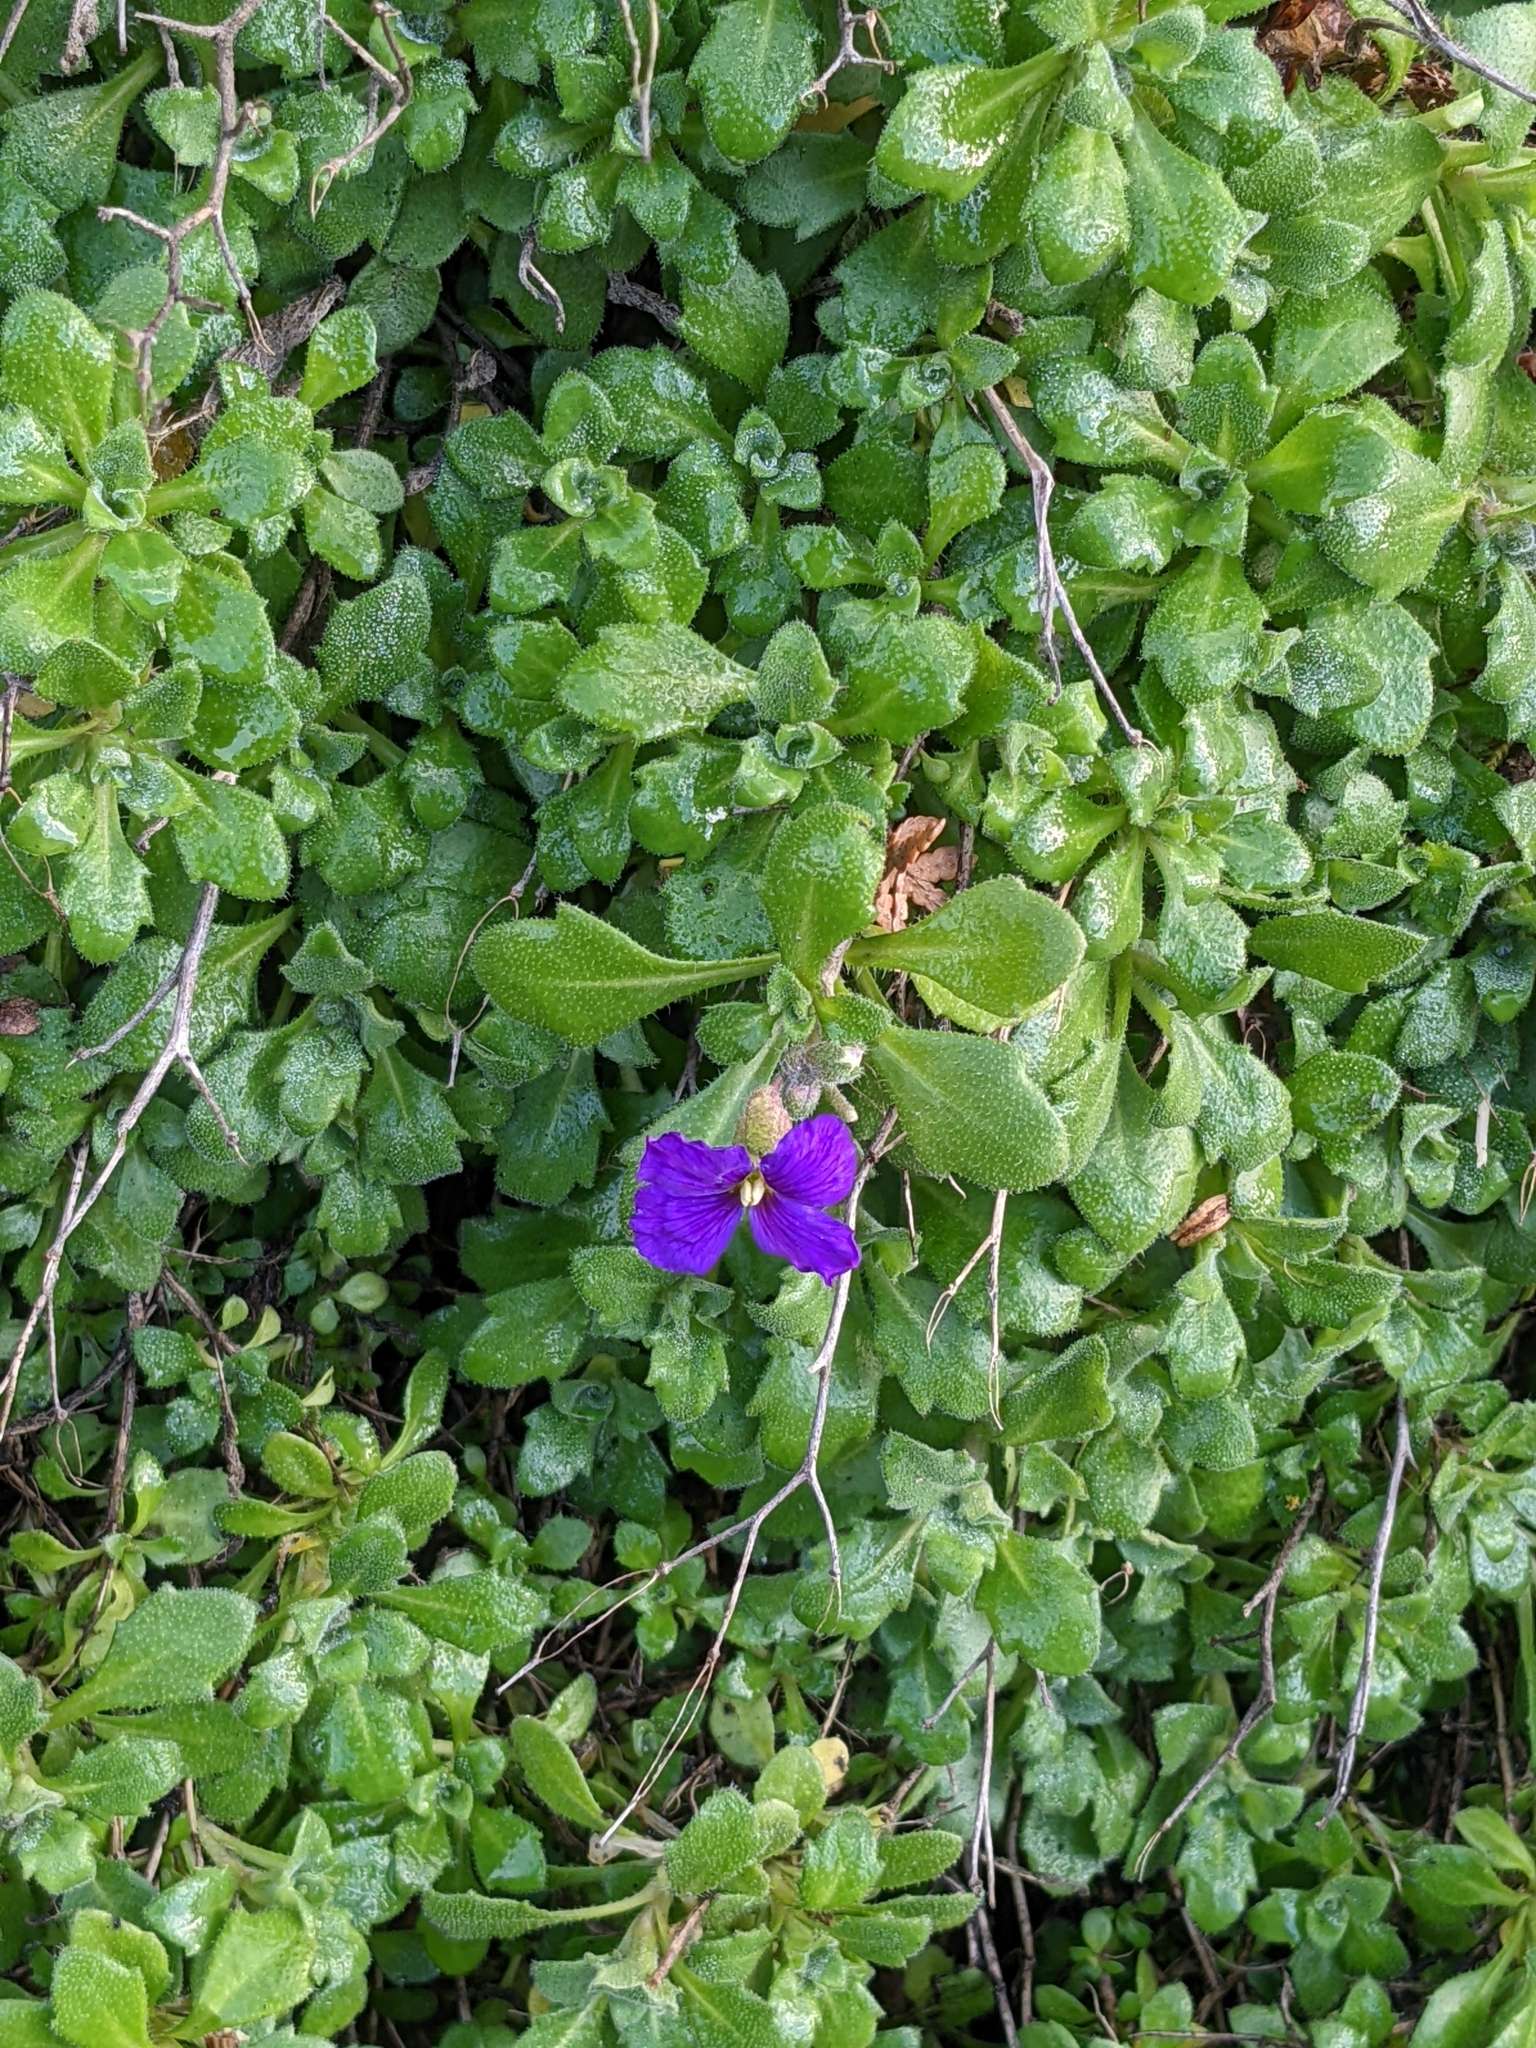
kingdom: Plantae
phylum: Tracheophyta
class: Magnoliopsida
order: Brassicales
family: Brassicaceae
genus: Aubrieta
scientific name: Aubrieta deltoidea
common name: Aubretia
